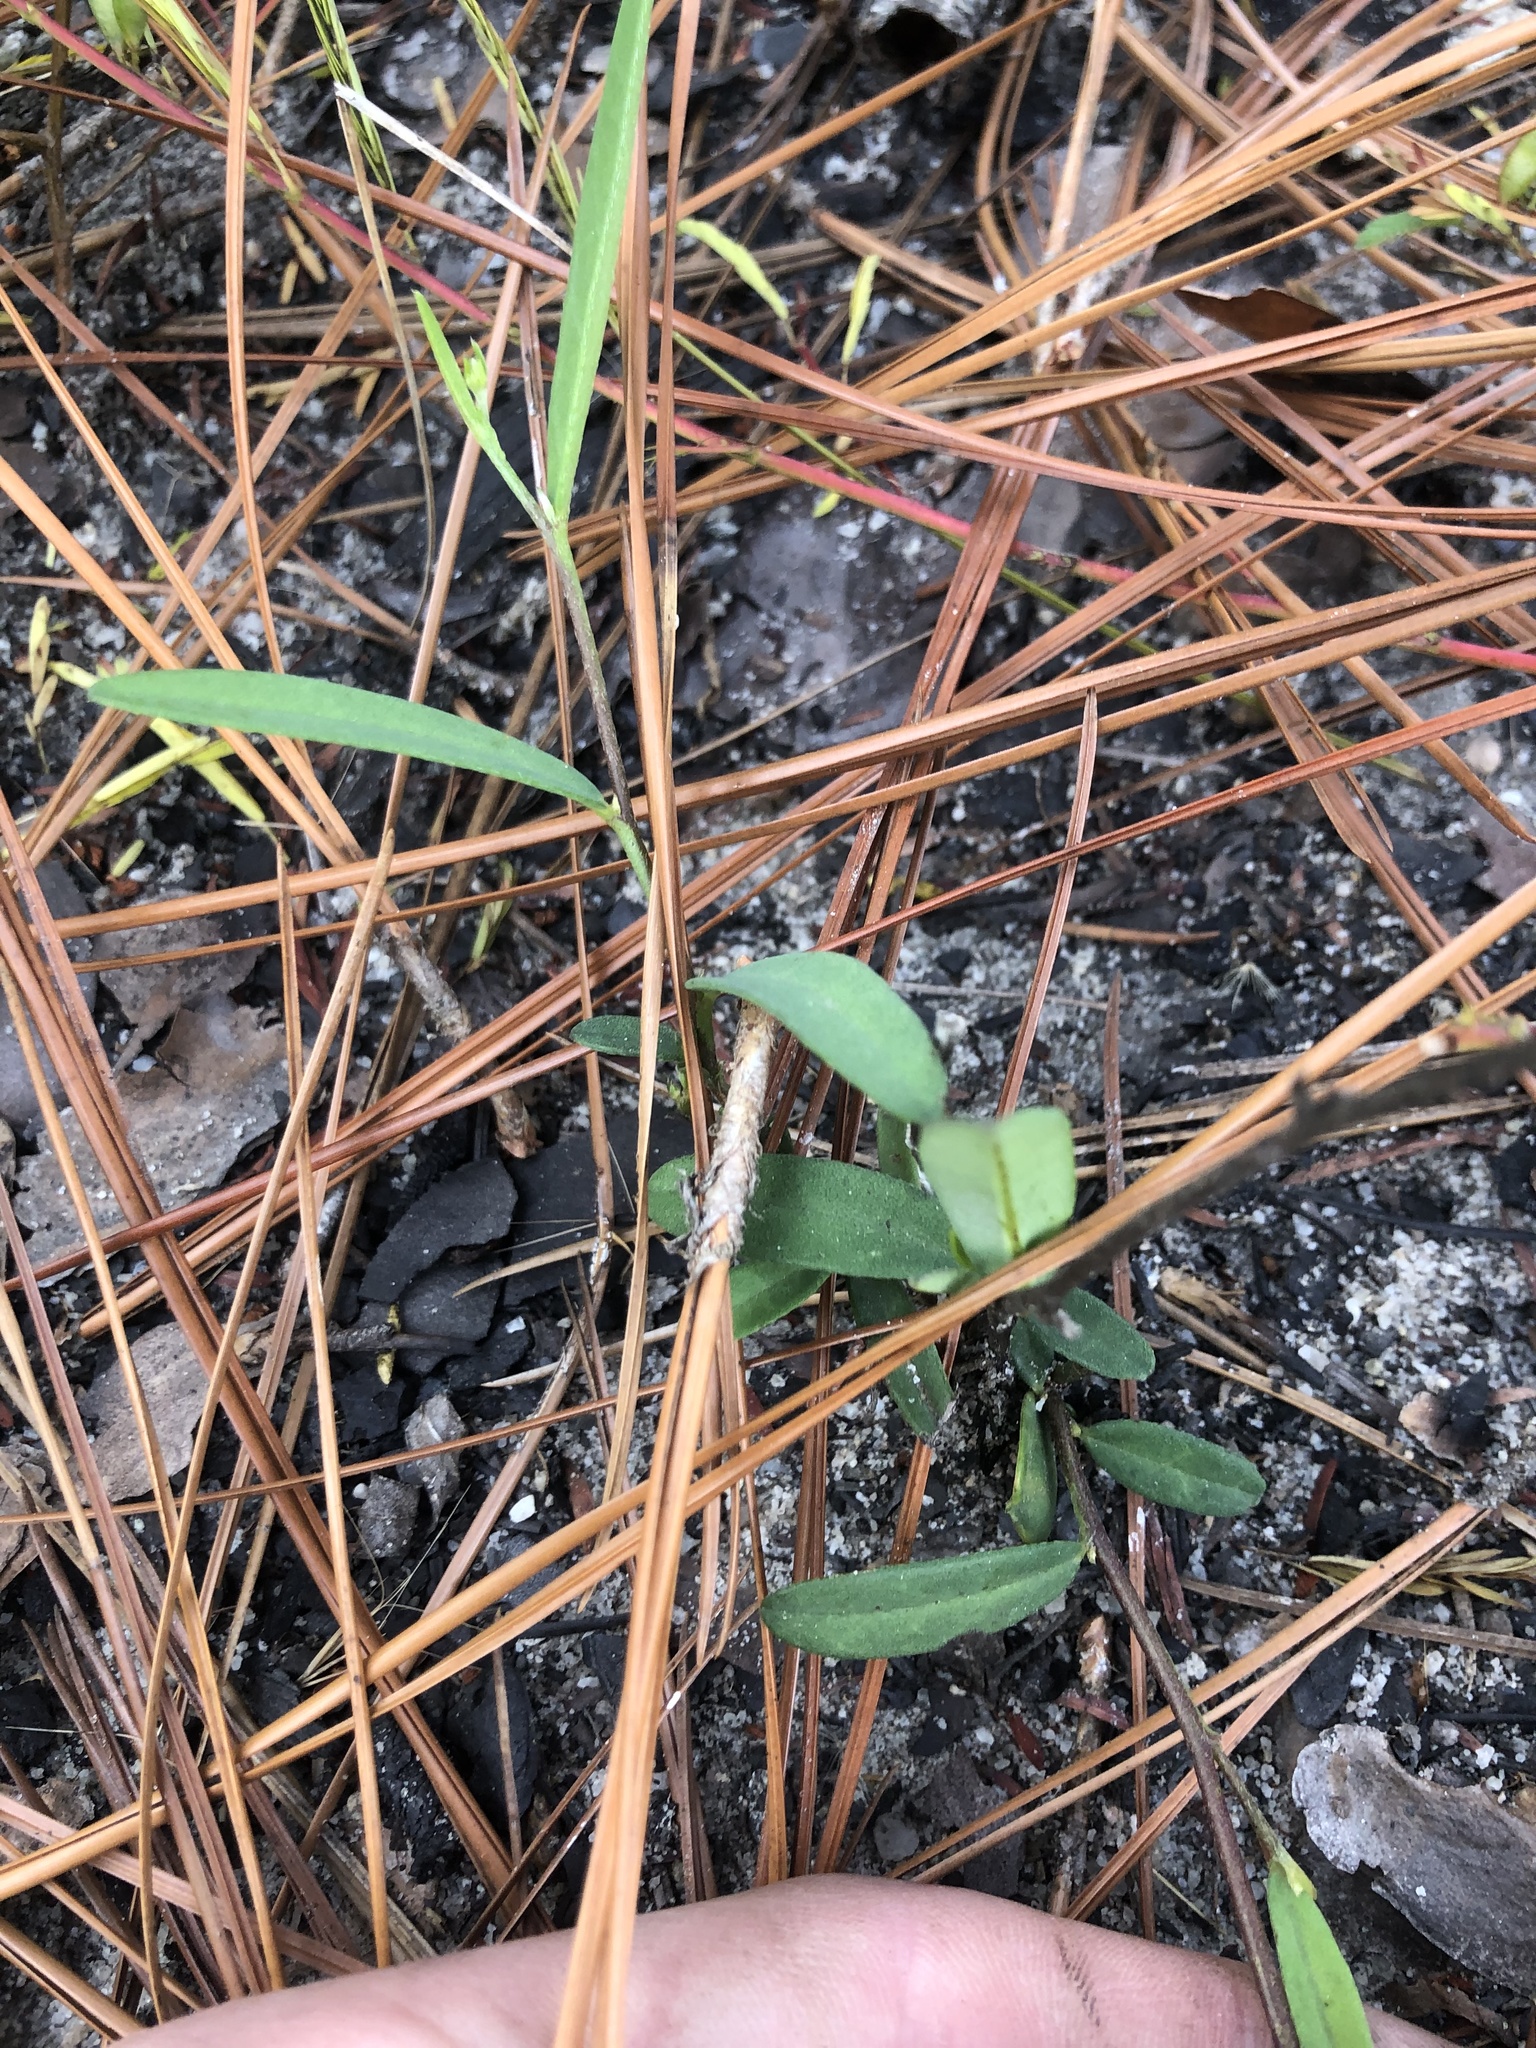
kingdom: Plantae
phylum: Tracheophyta
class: Magnoliopsida
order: Fabales
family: Fabaceae
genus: Crotalaria
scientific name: Crotalaria sagittalis
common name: Arrowhead rattlebox
